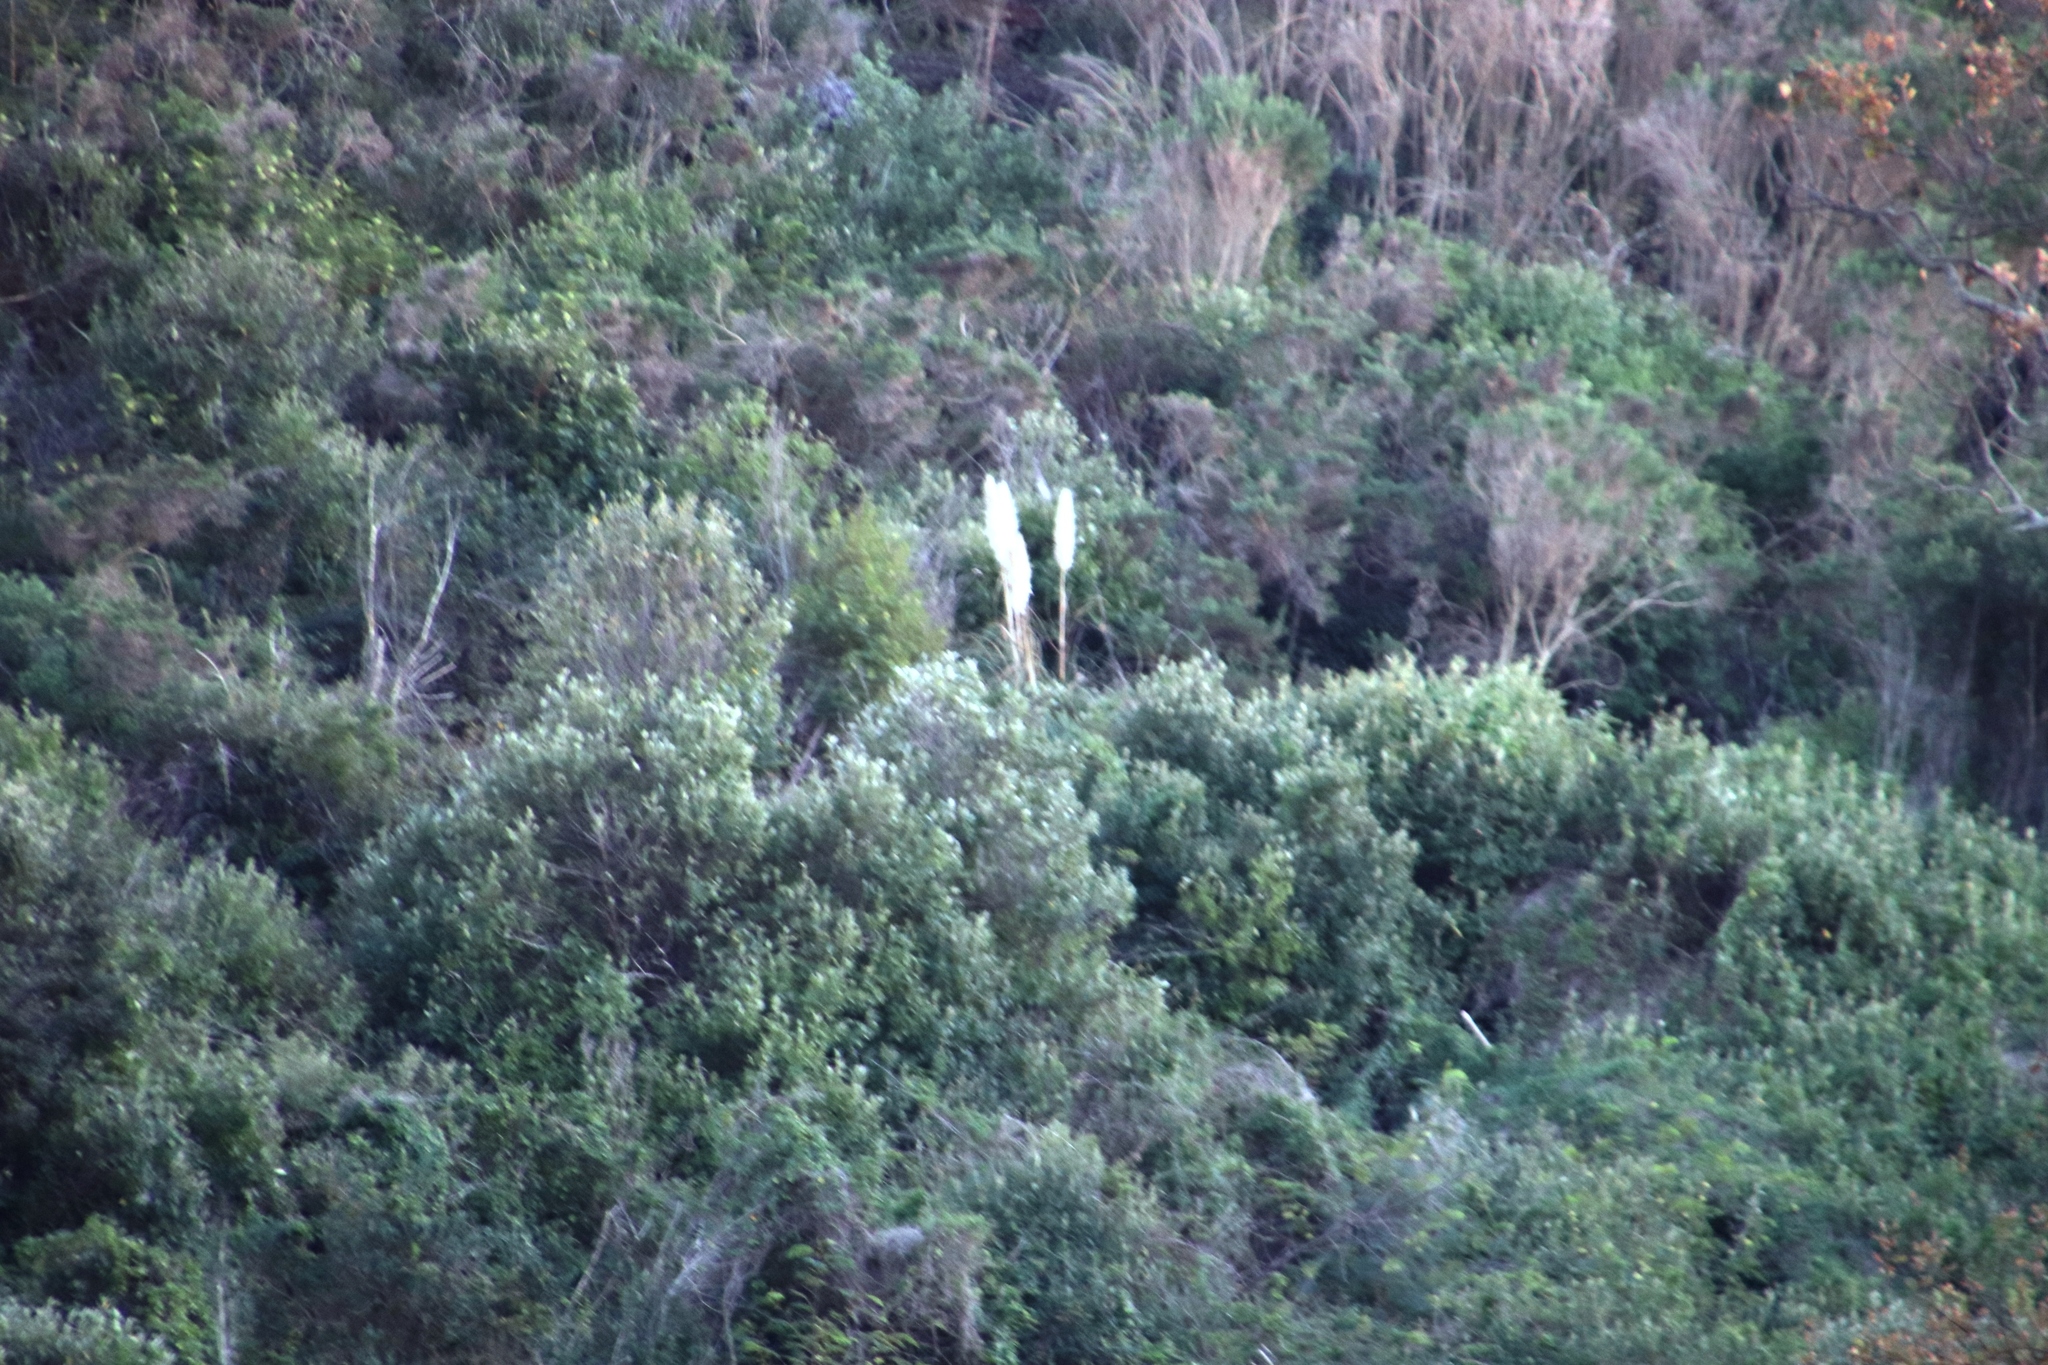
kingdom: Plantae
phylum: Tracheophyta
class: Liliopsida
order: Poales
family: Poaceae
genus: Cortaderia
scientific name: Cortaderia selloana
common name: Uruguayan pampas grass
